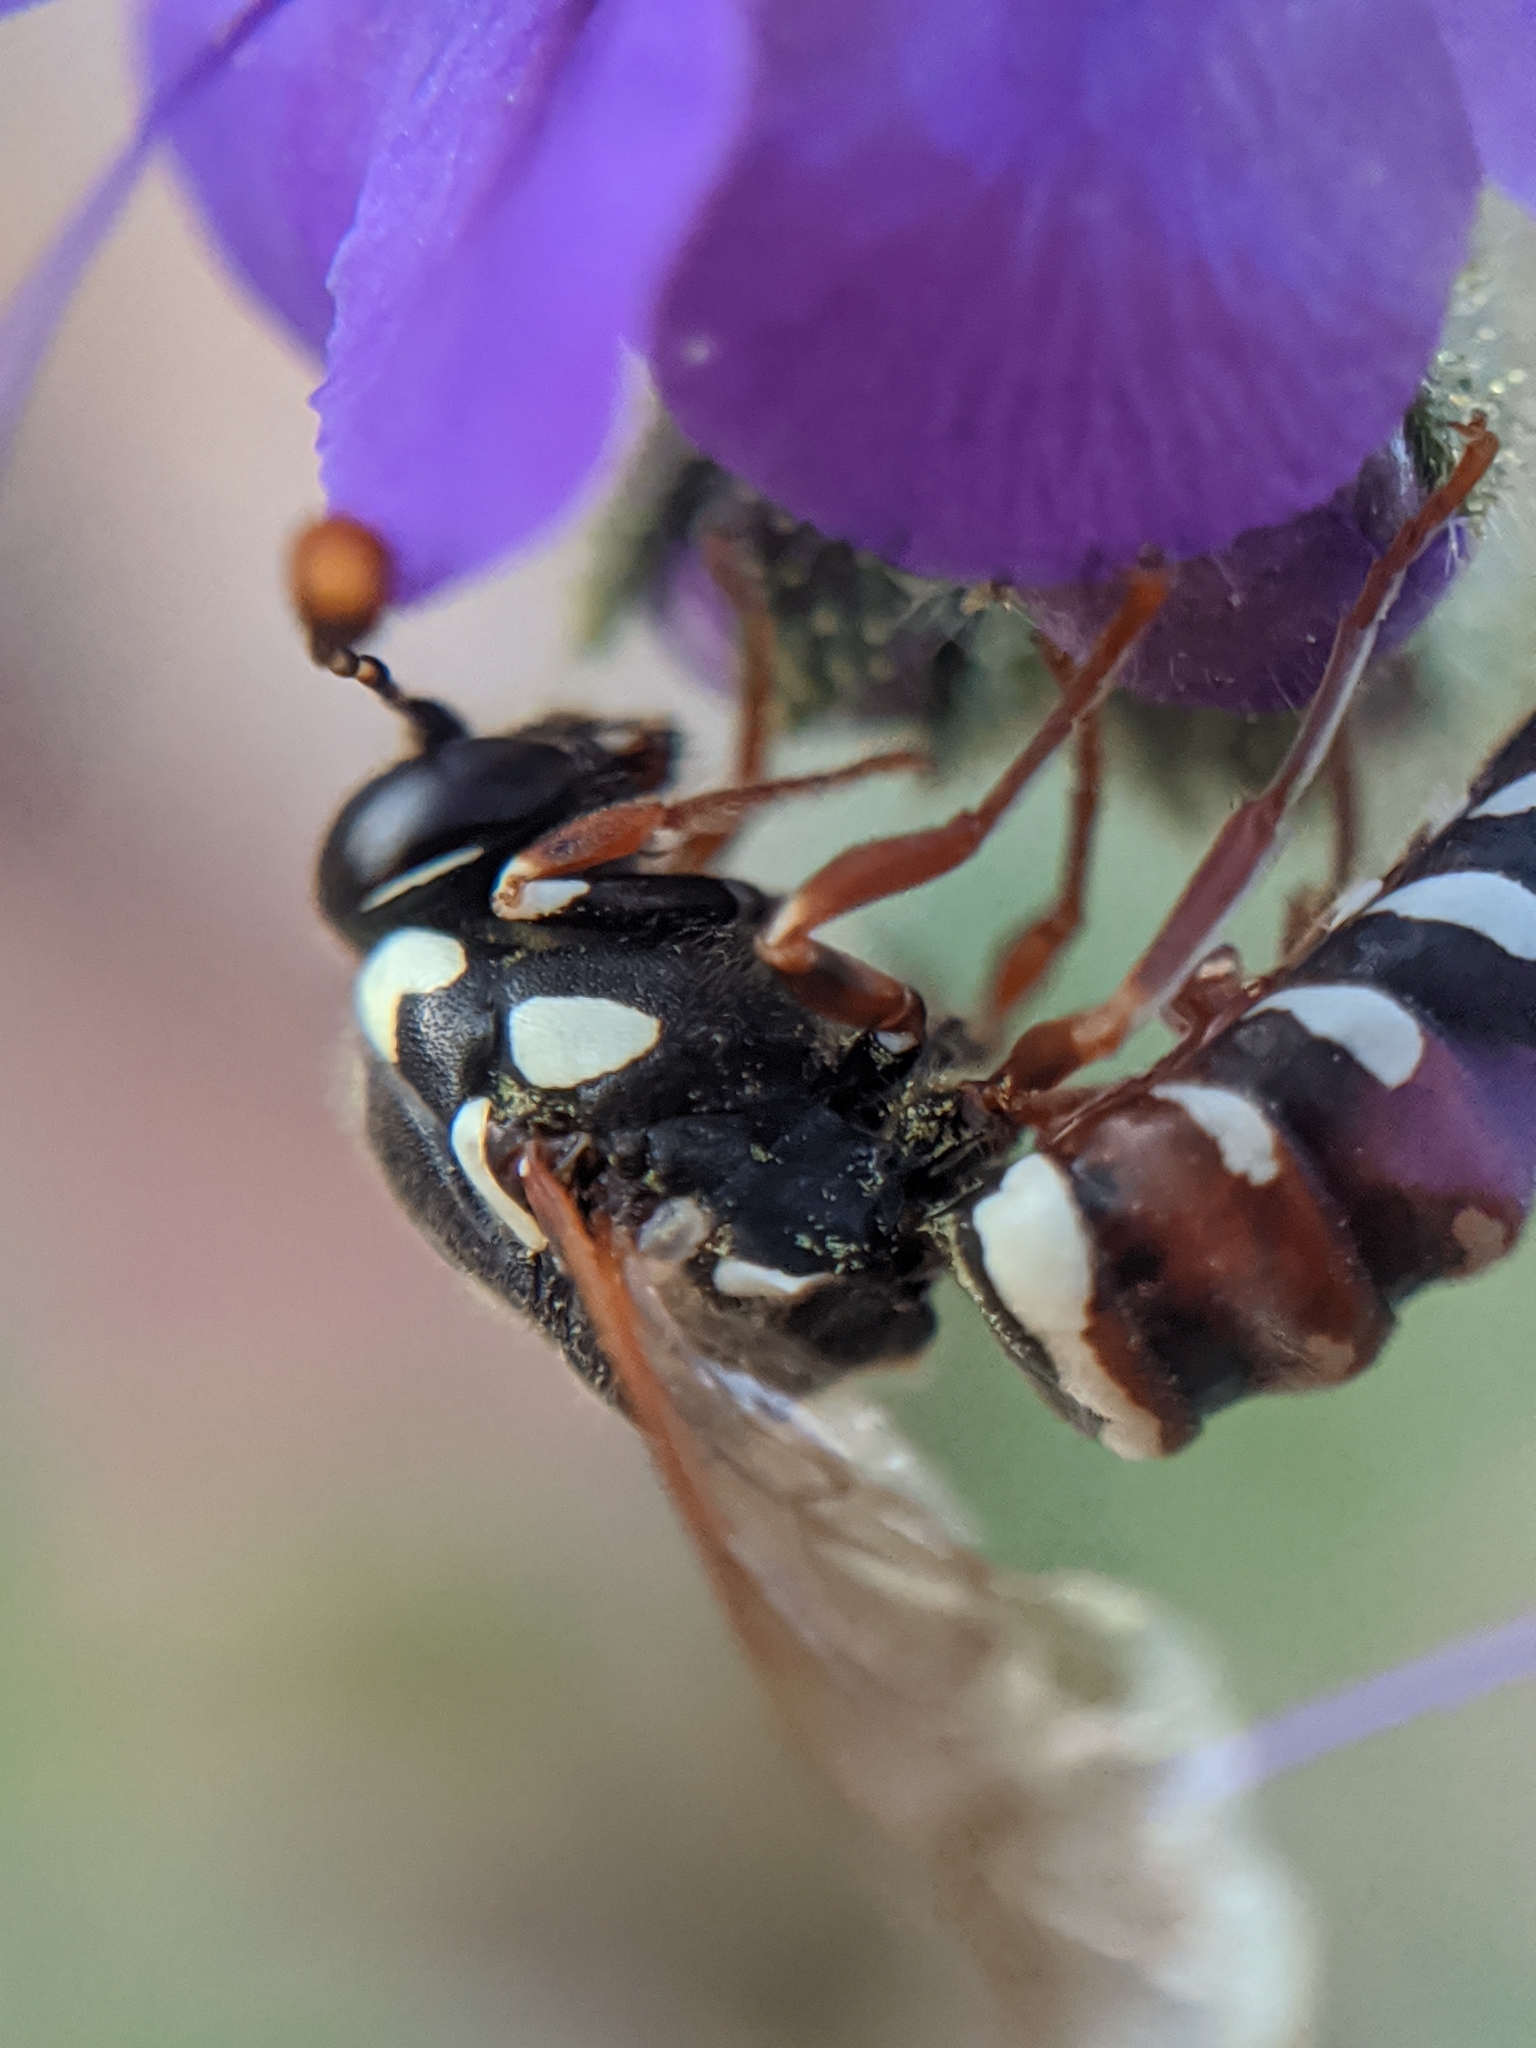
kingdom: Animalia
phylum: Arthropoda
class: Insecta
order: Hymenoptera
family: Masaridae
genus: Pseudomasaris
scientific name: Pseudomasaris basirufus
